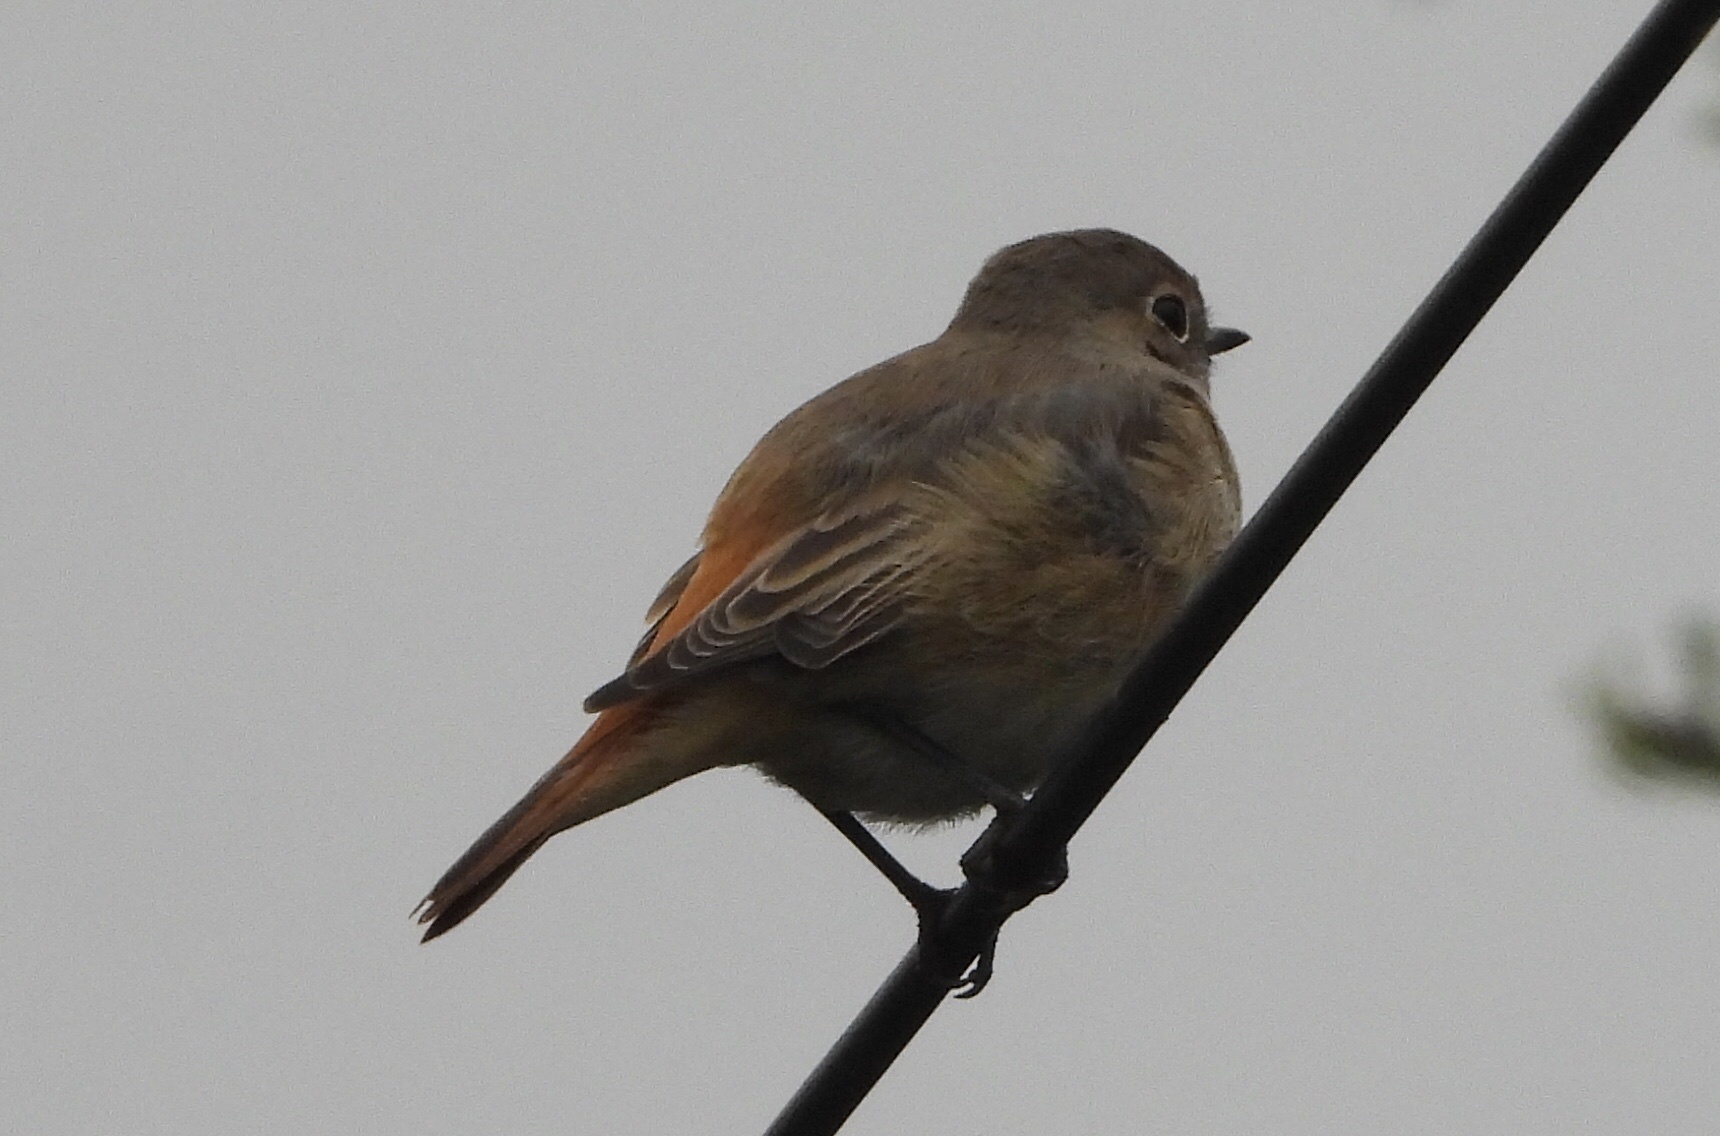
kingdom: Animalia
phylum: Chordata
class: Aves
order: Passeriformes
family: Muscicapidae
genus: Phoenicurus
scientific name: Phoenicurus phoenicurus
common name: Common redstart
